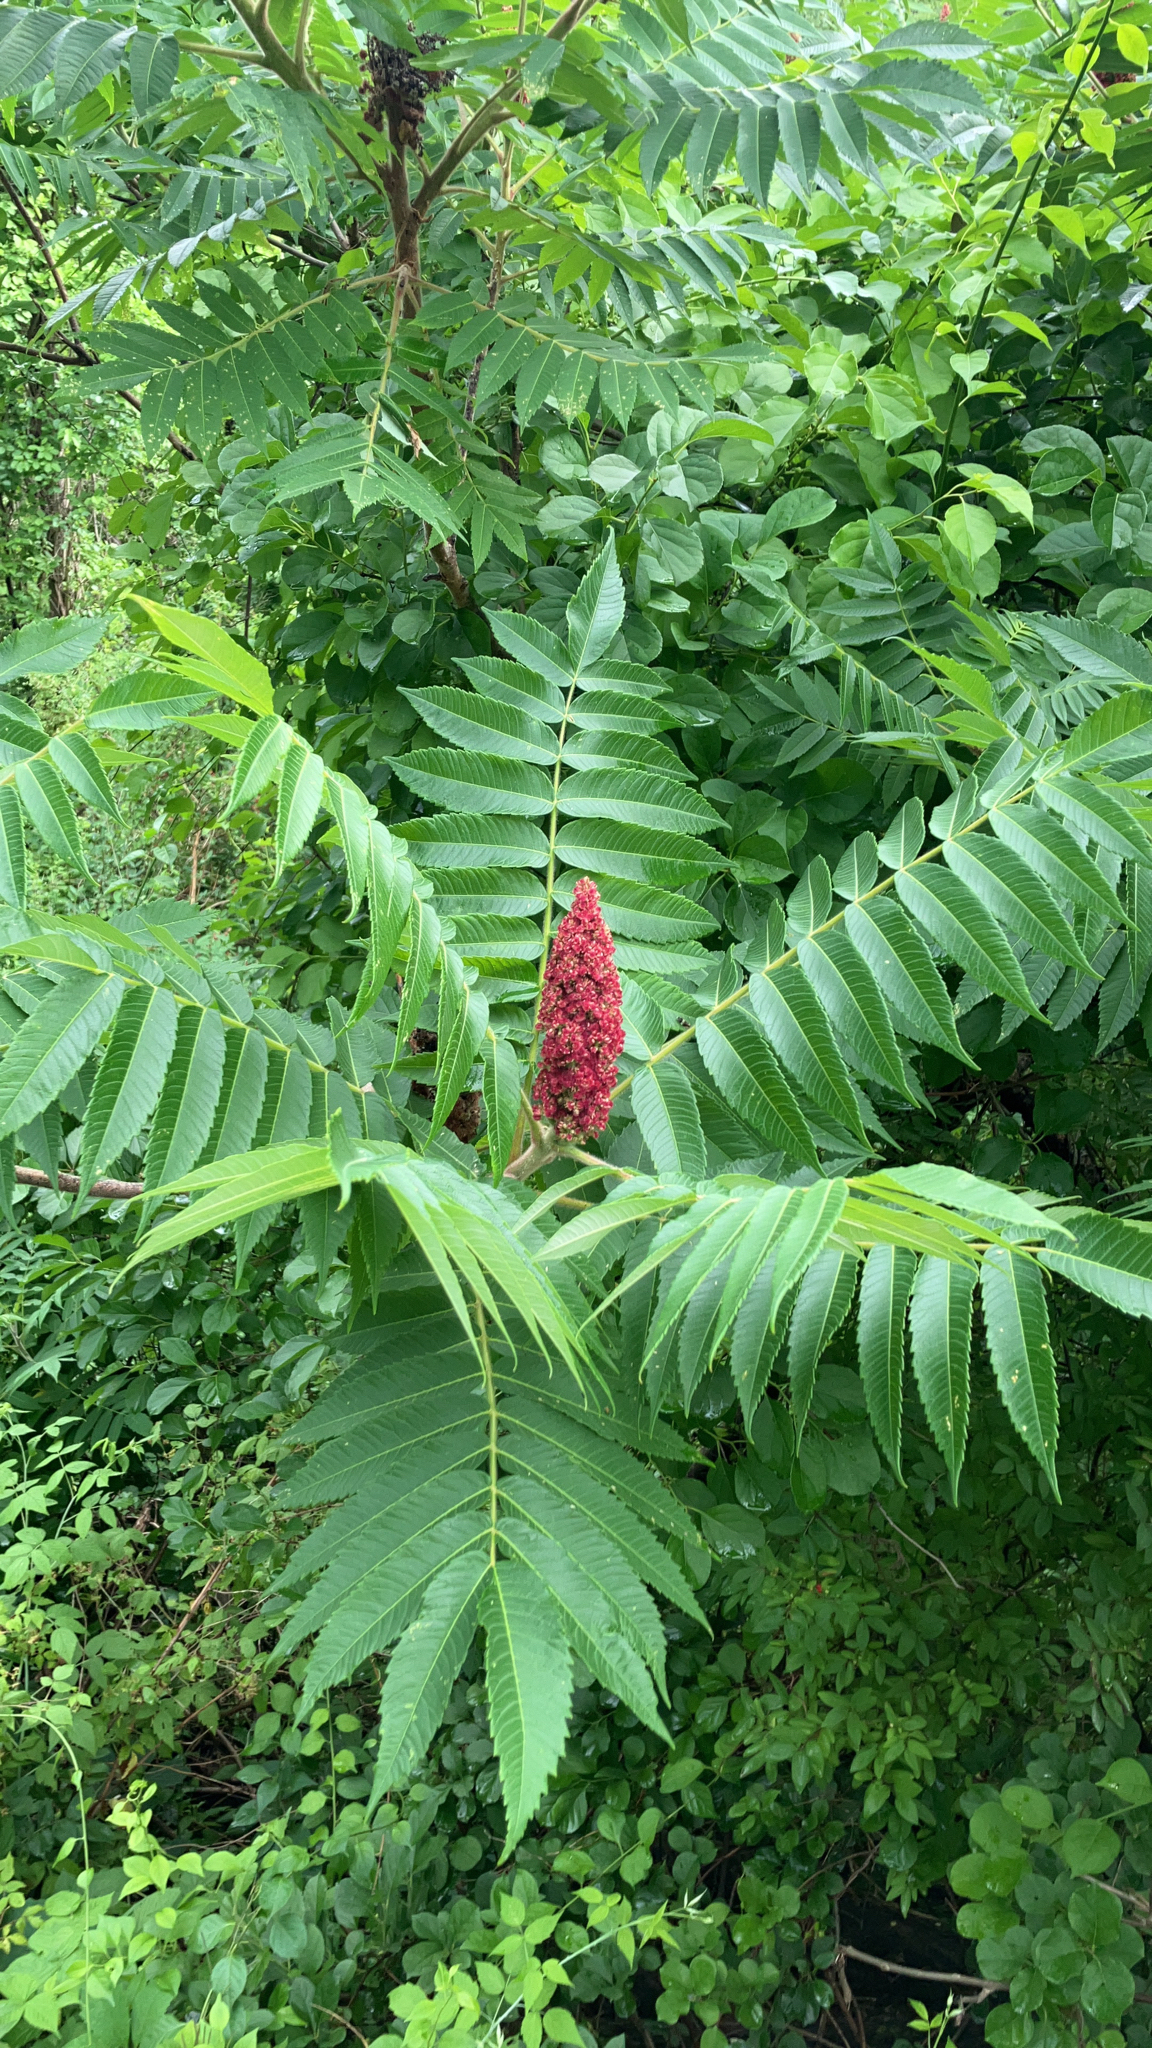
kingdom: Plantae
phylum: Tracheophyta
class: Magnoliopsida
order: Sapindales
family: Anacardiaceae
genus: Rhus
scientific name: Rhus typhina
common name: Staghorn sumac
